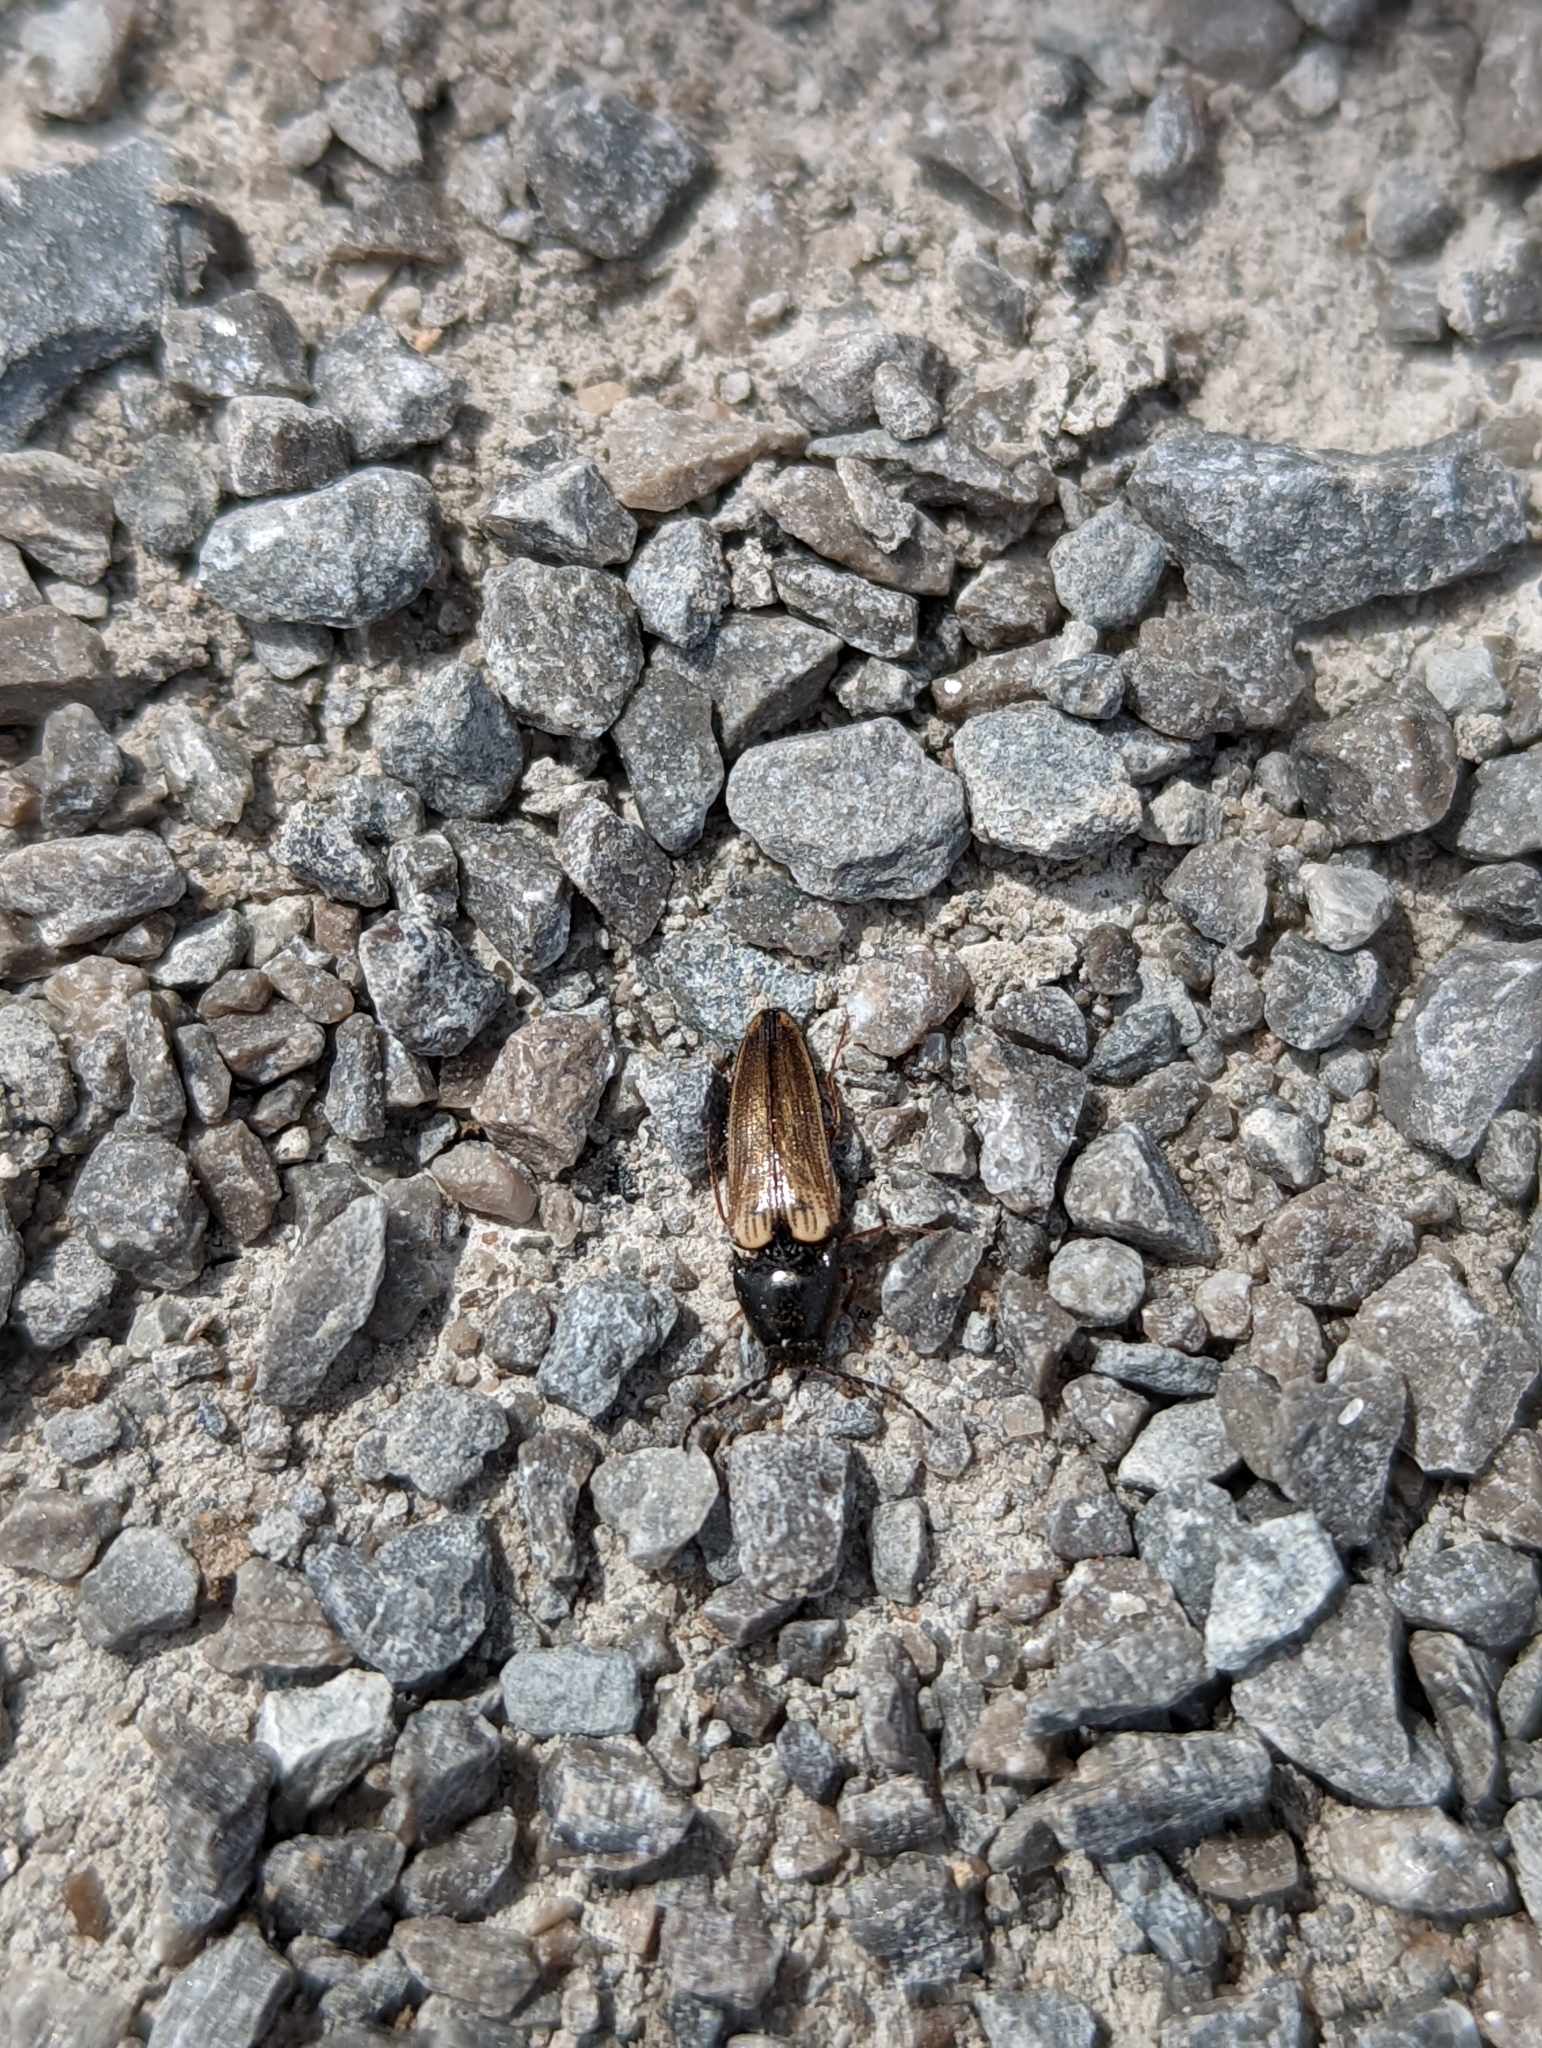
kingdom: Animalia
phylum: Arthropoda
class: Insecta
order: Coleoptera
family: Elateridae
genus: Ampedus
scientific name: Ampedus nigricollis
